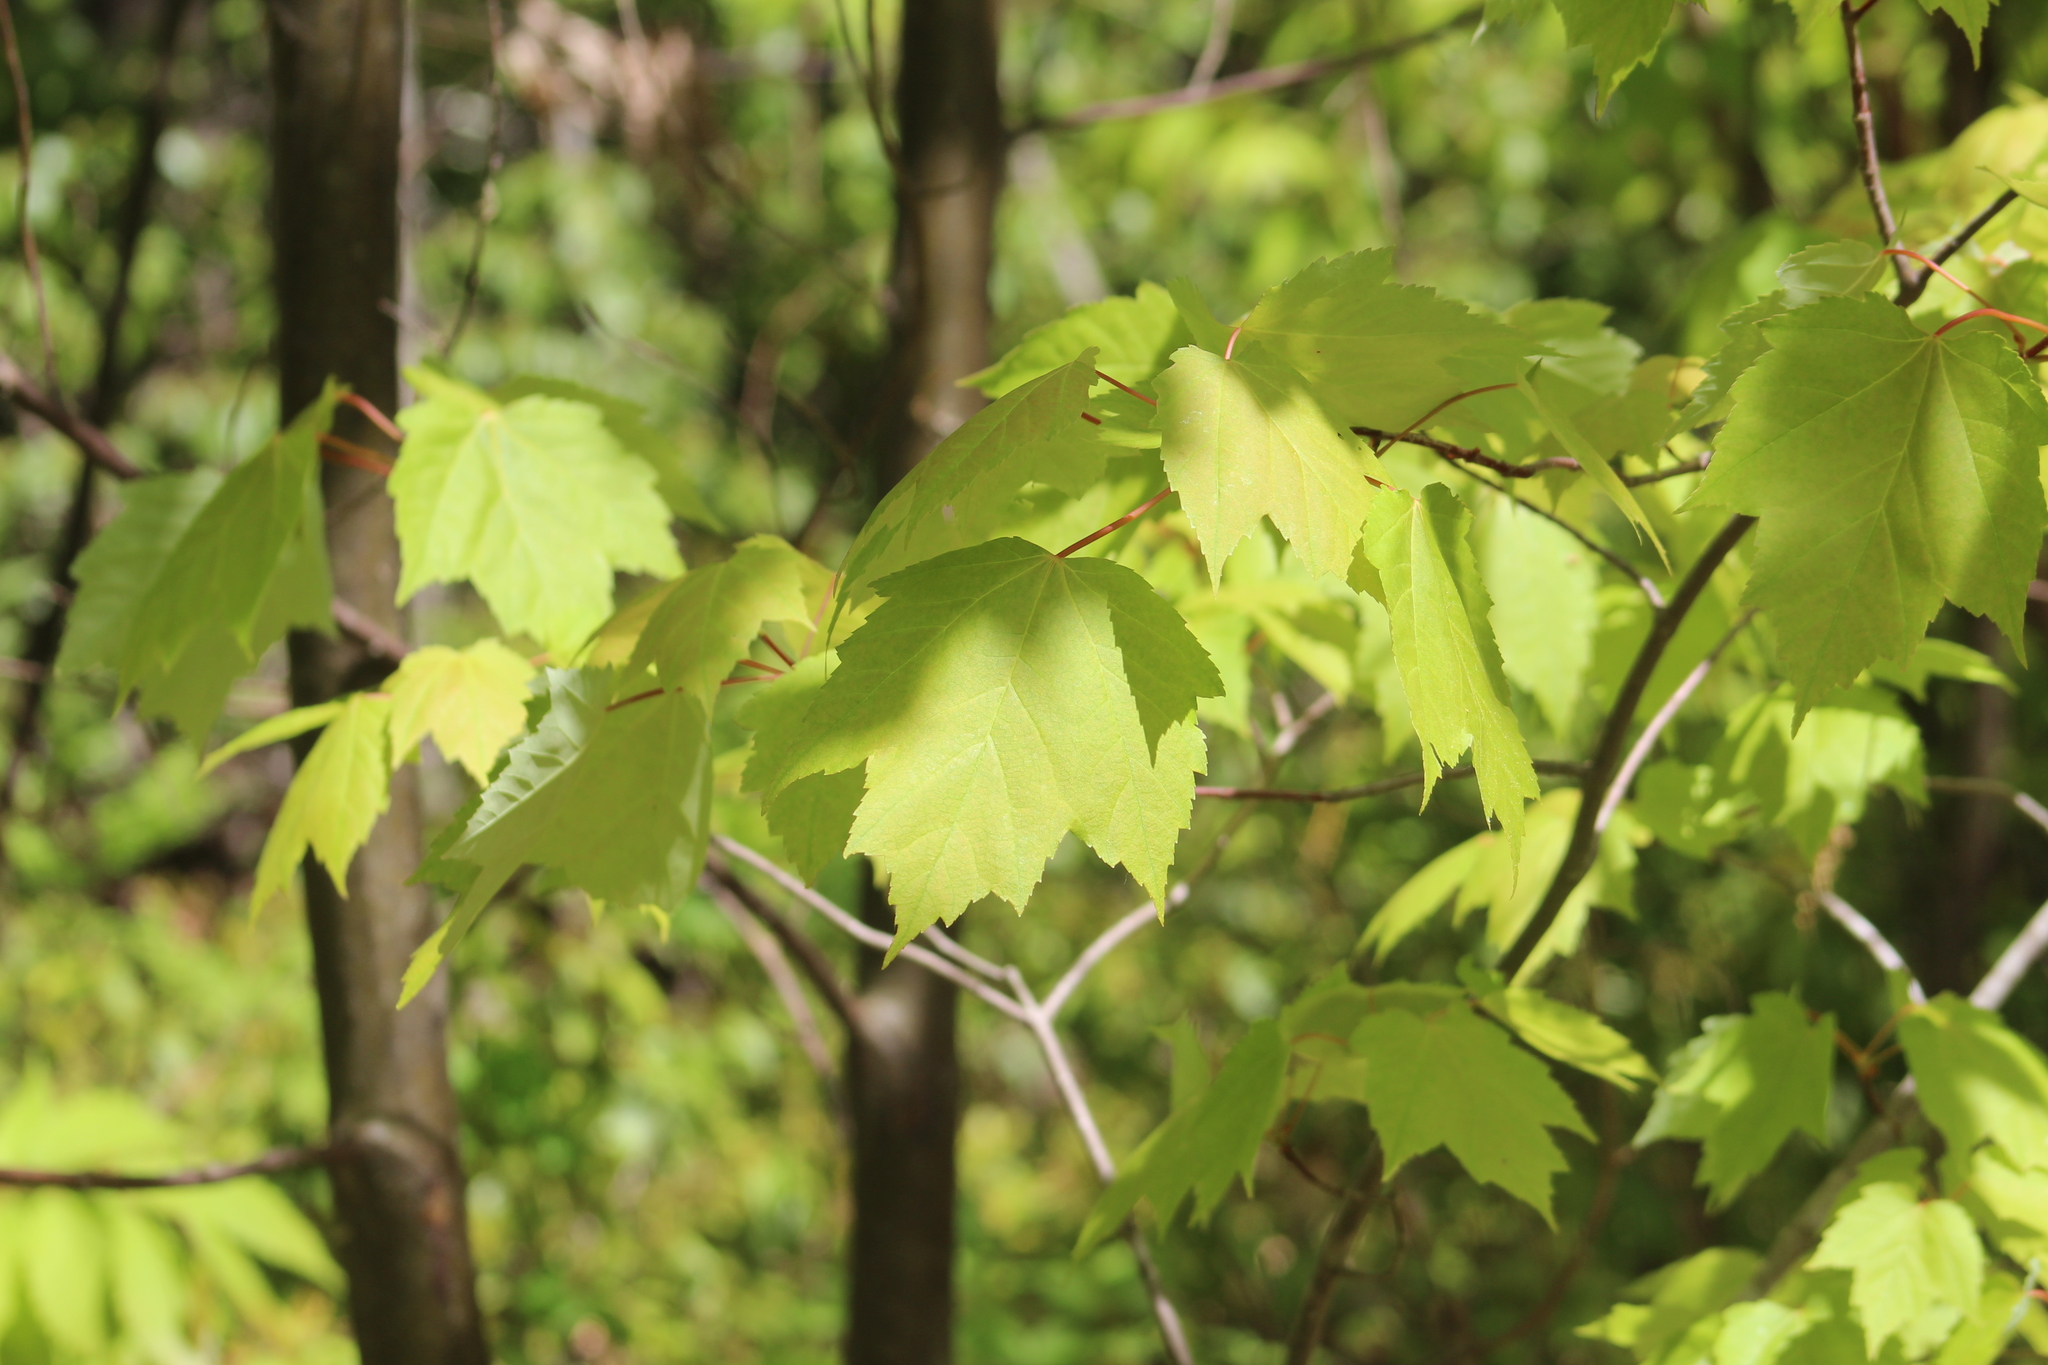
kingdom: Plantae
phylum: Tracheophyta
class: Magnoliopsida
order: Sapindales
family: Sapindaceae
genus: Acer
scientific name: Acer rubrum
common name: Red maple
